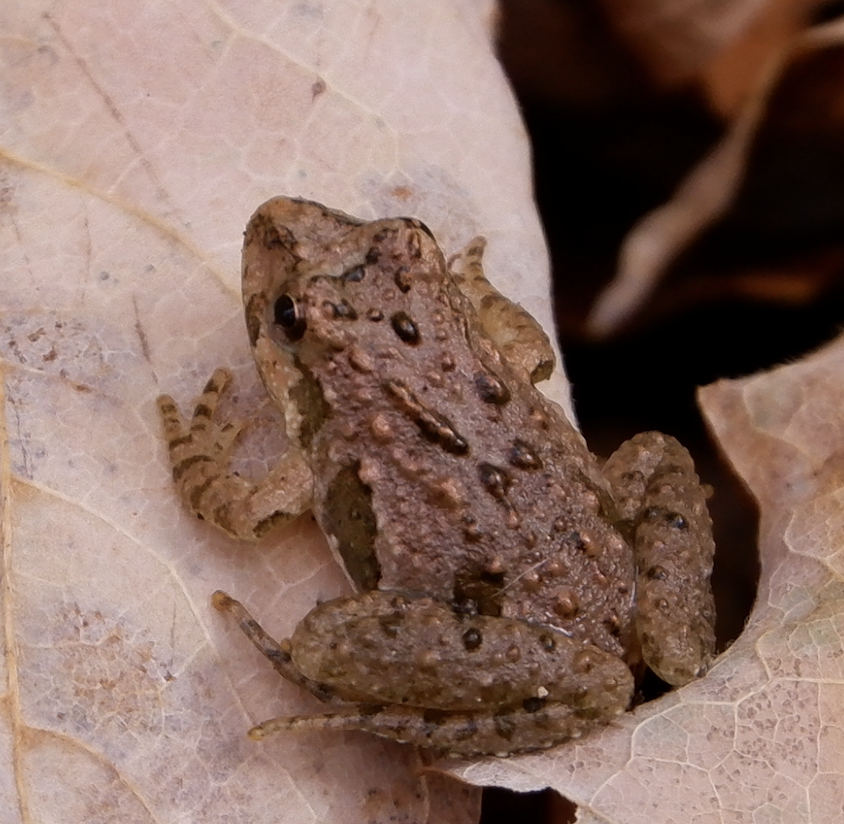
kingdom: Animalia
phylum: Chordata
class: Amphibia
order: Anura
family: Hylidae
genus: Acris
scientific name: Acris crepitans
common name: Northern cricket frog
